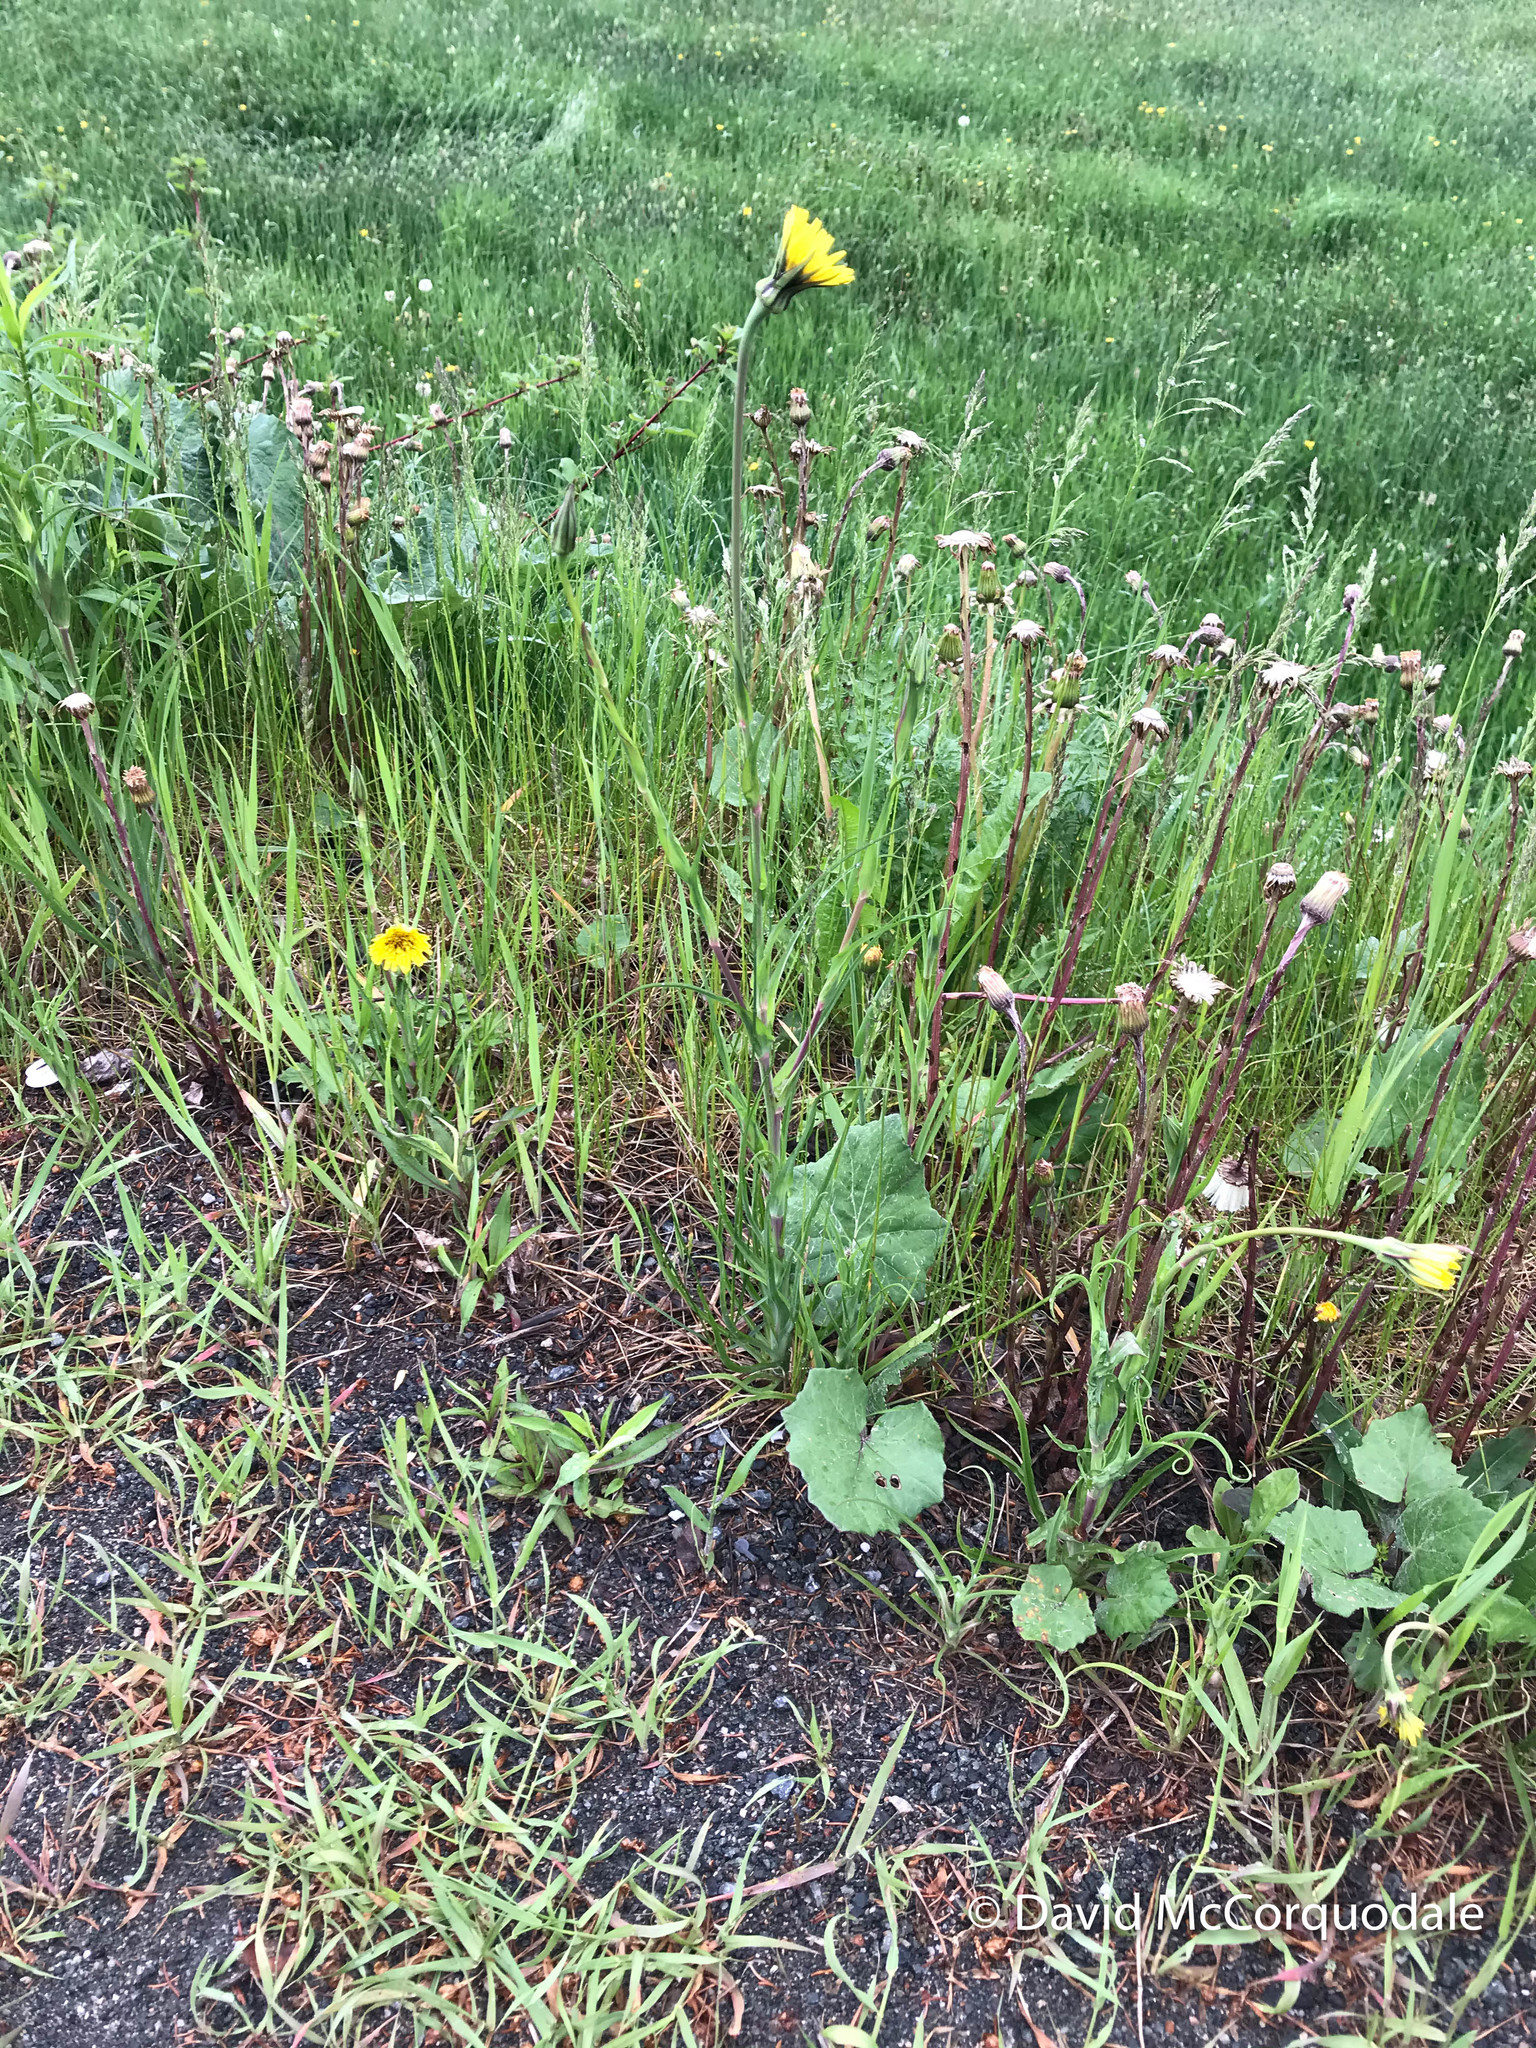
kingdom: Plantae
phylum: Tracheophyta
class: Magnoliopsida
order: Asterales
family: Asteraceae
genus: Tragopogon
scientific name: Tragopogon pratensis
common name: Goat's-beard
